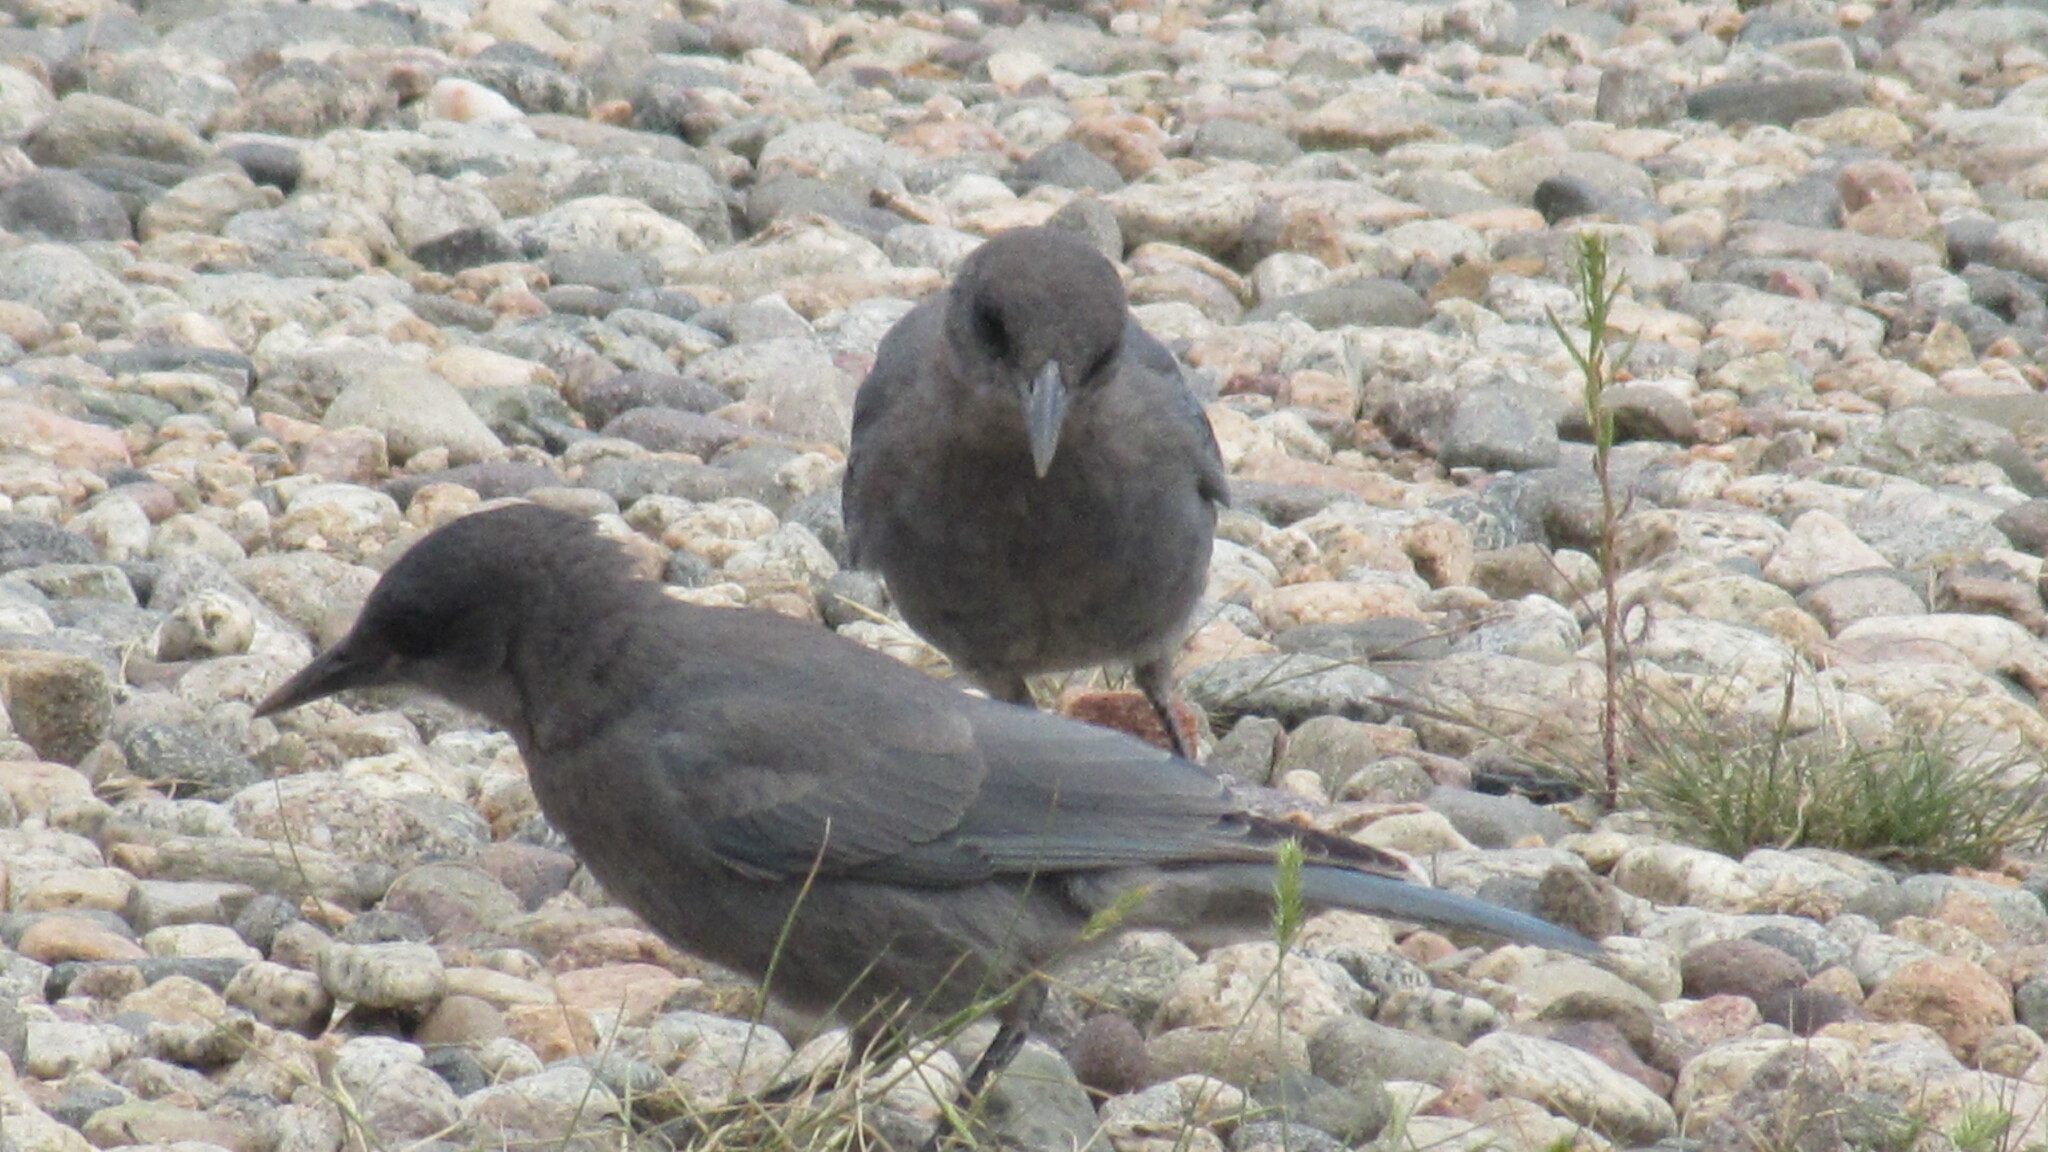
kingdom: Animalia
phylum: Chordata
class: Aves
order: Passeriformes
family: Corvidae
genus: Gymnorhinus
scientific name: Gymnorhinus cyanocephalus
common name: Pinyon jay
